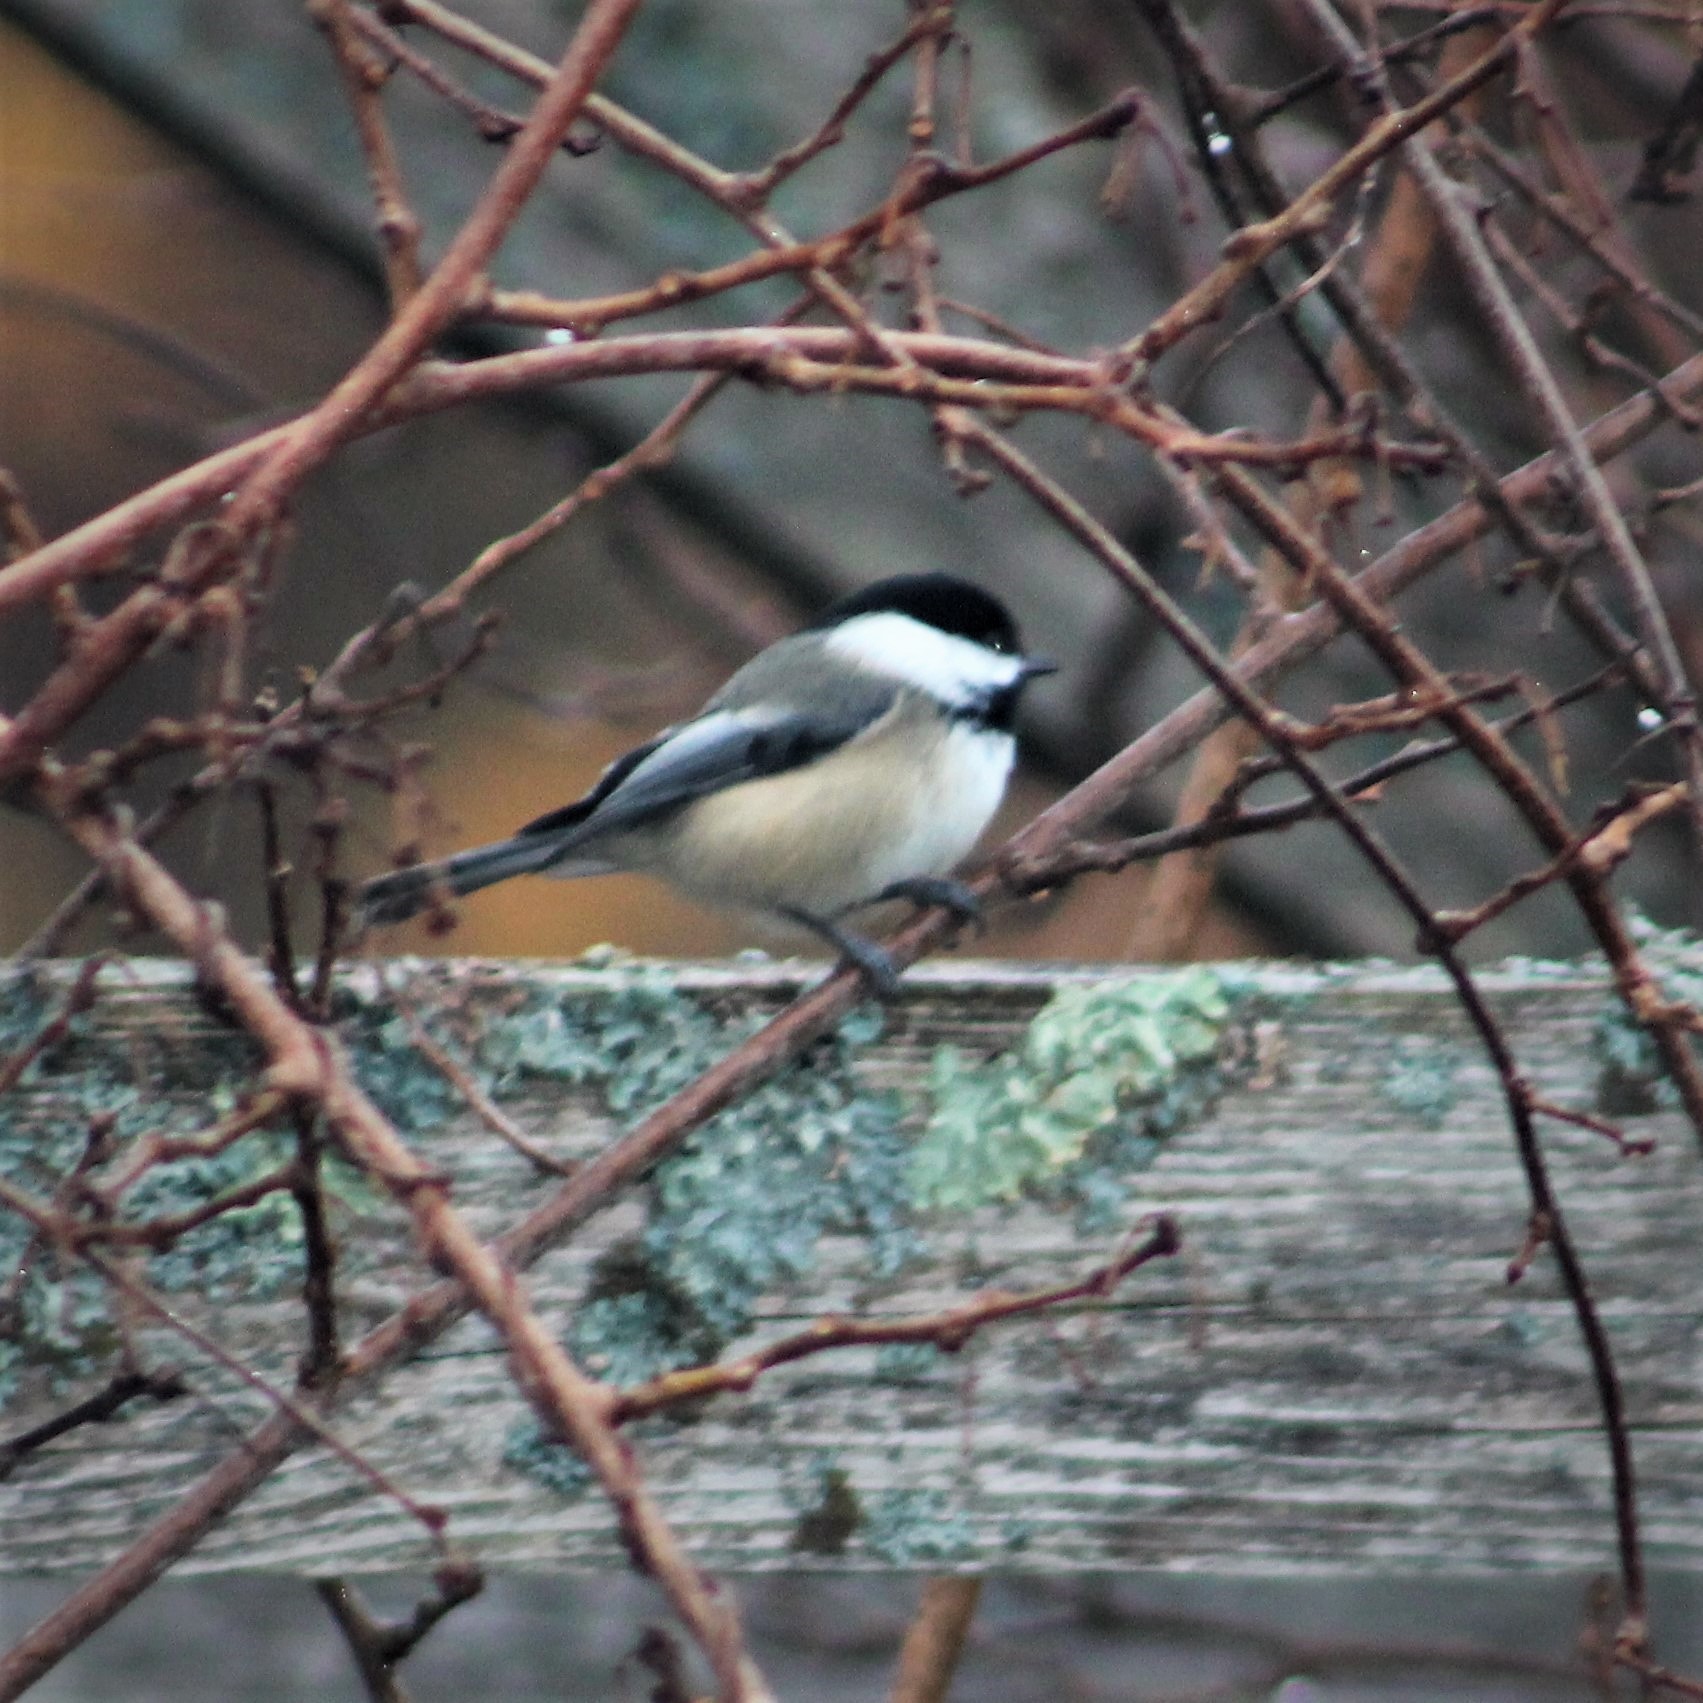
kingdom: Animalia
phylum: Chordata
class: Aves
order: Passeriformes
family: Paridae
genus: Poecile
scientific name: Poecile atricapillus
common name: Black-capped chickadee
